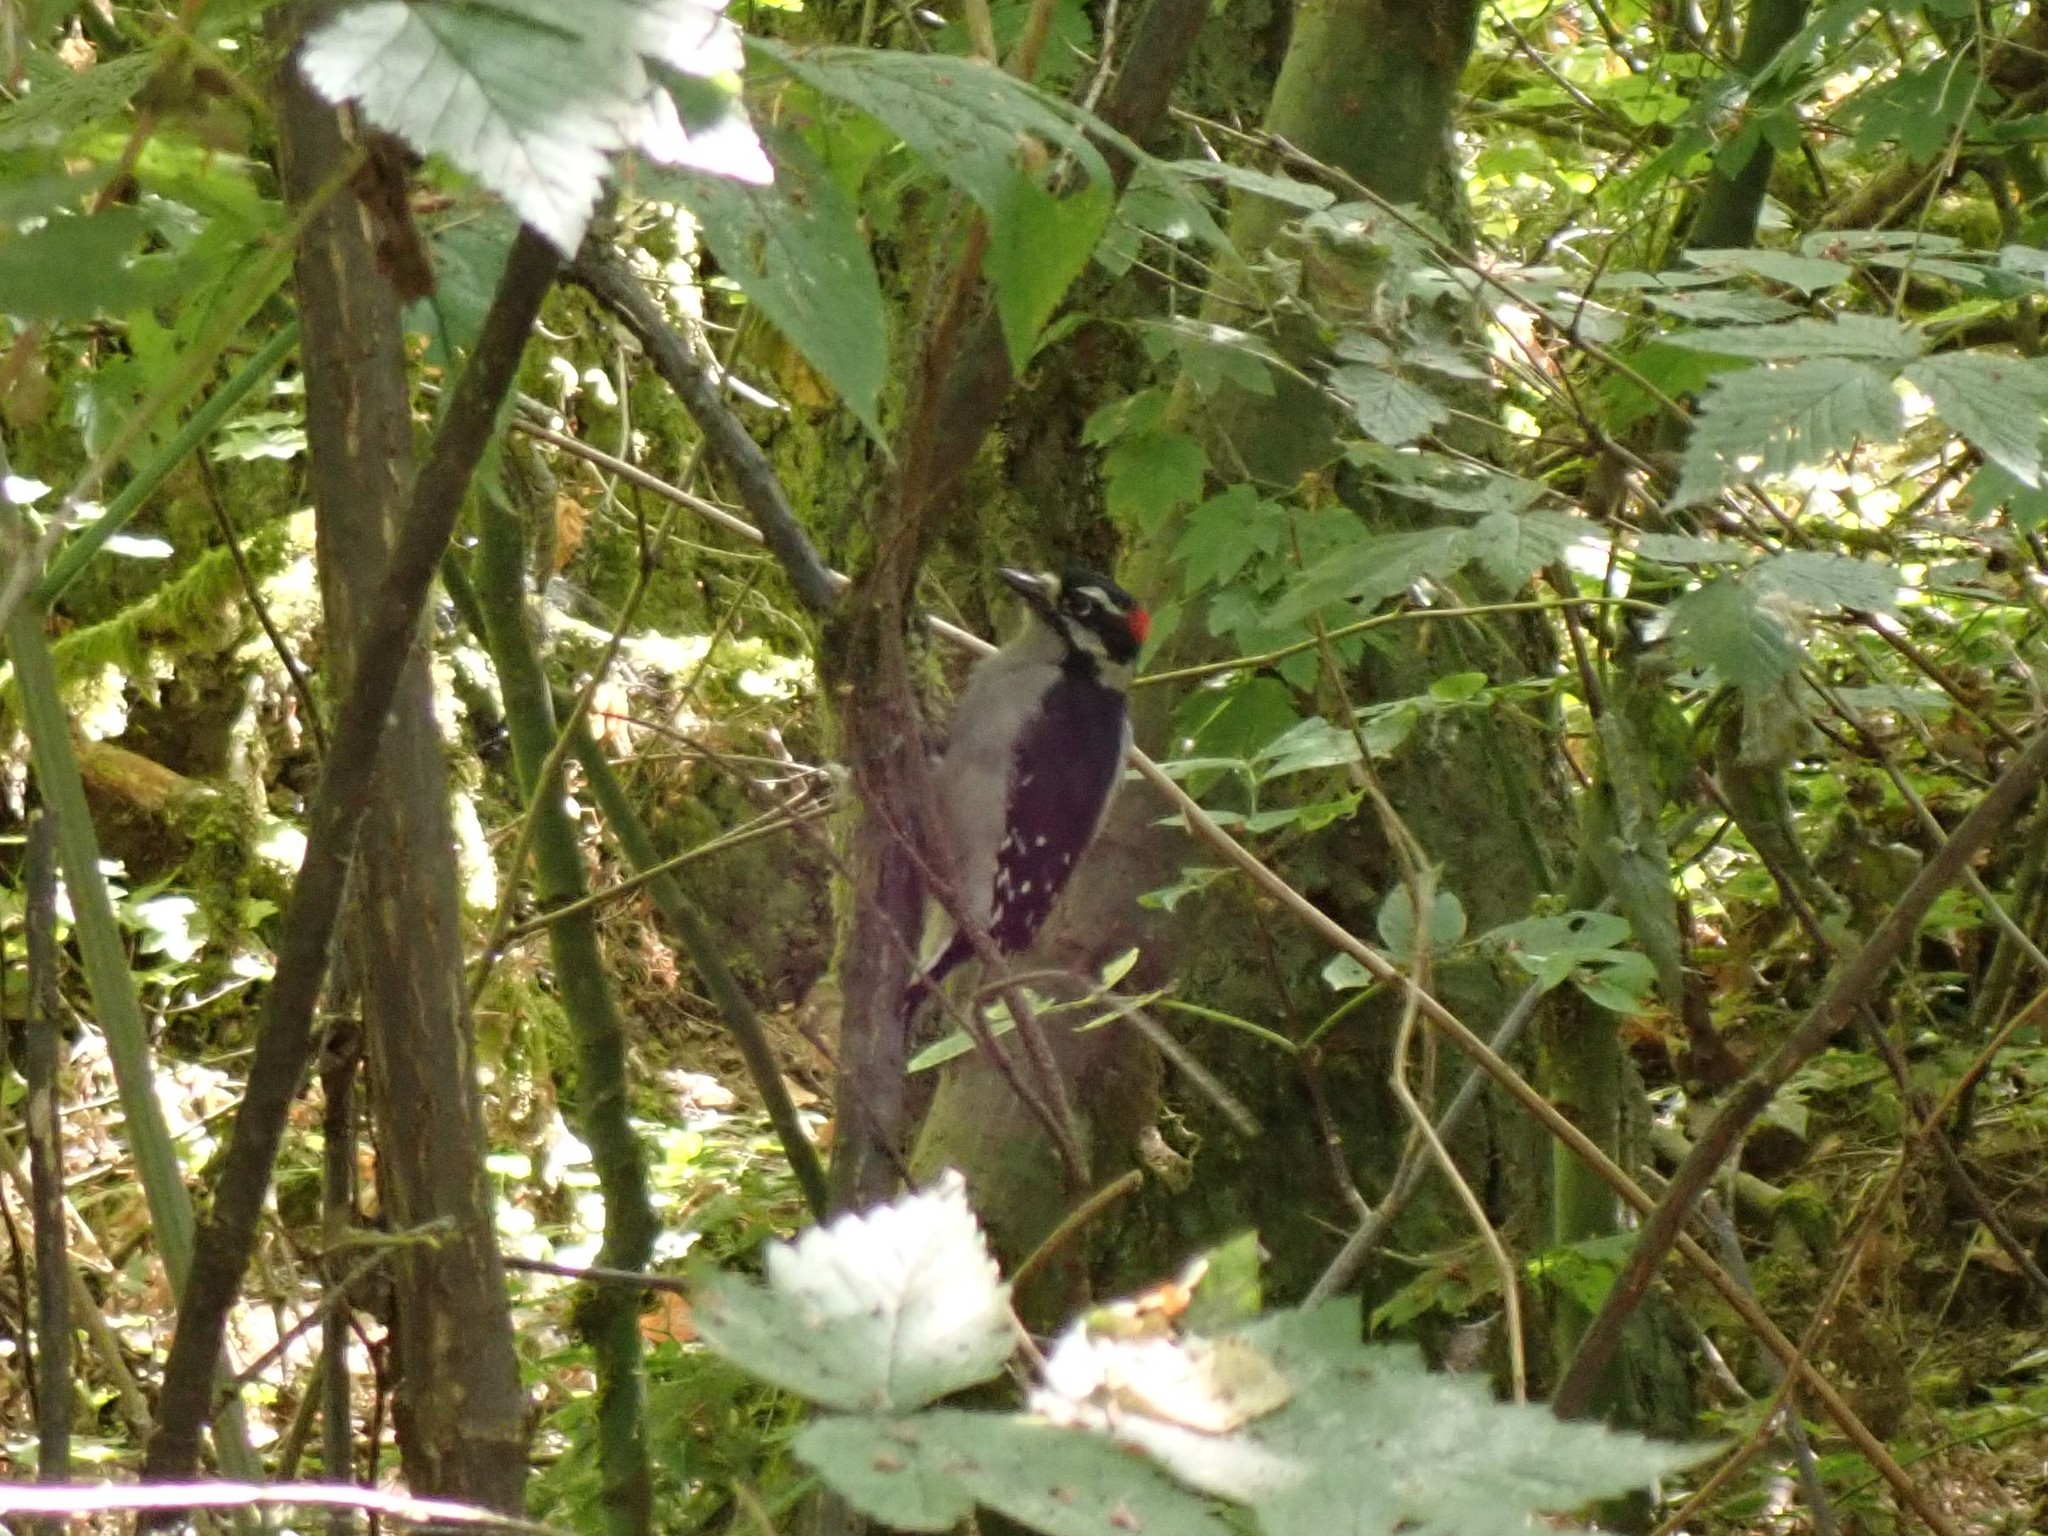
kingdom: Animalia
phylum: Chordata
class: Aves
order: Piciformes
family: Picidae
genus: Dryobates
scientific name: Dryobates pubescens
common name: Downy woodpecker
